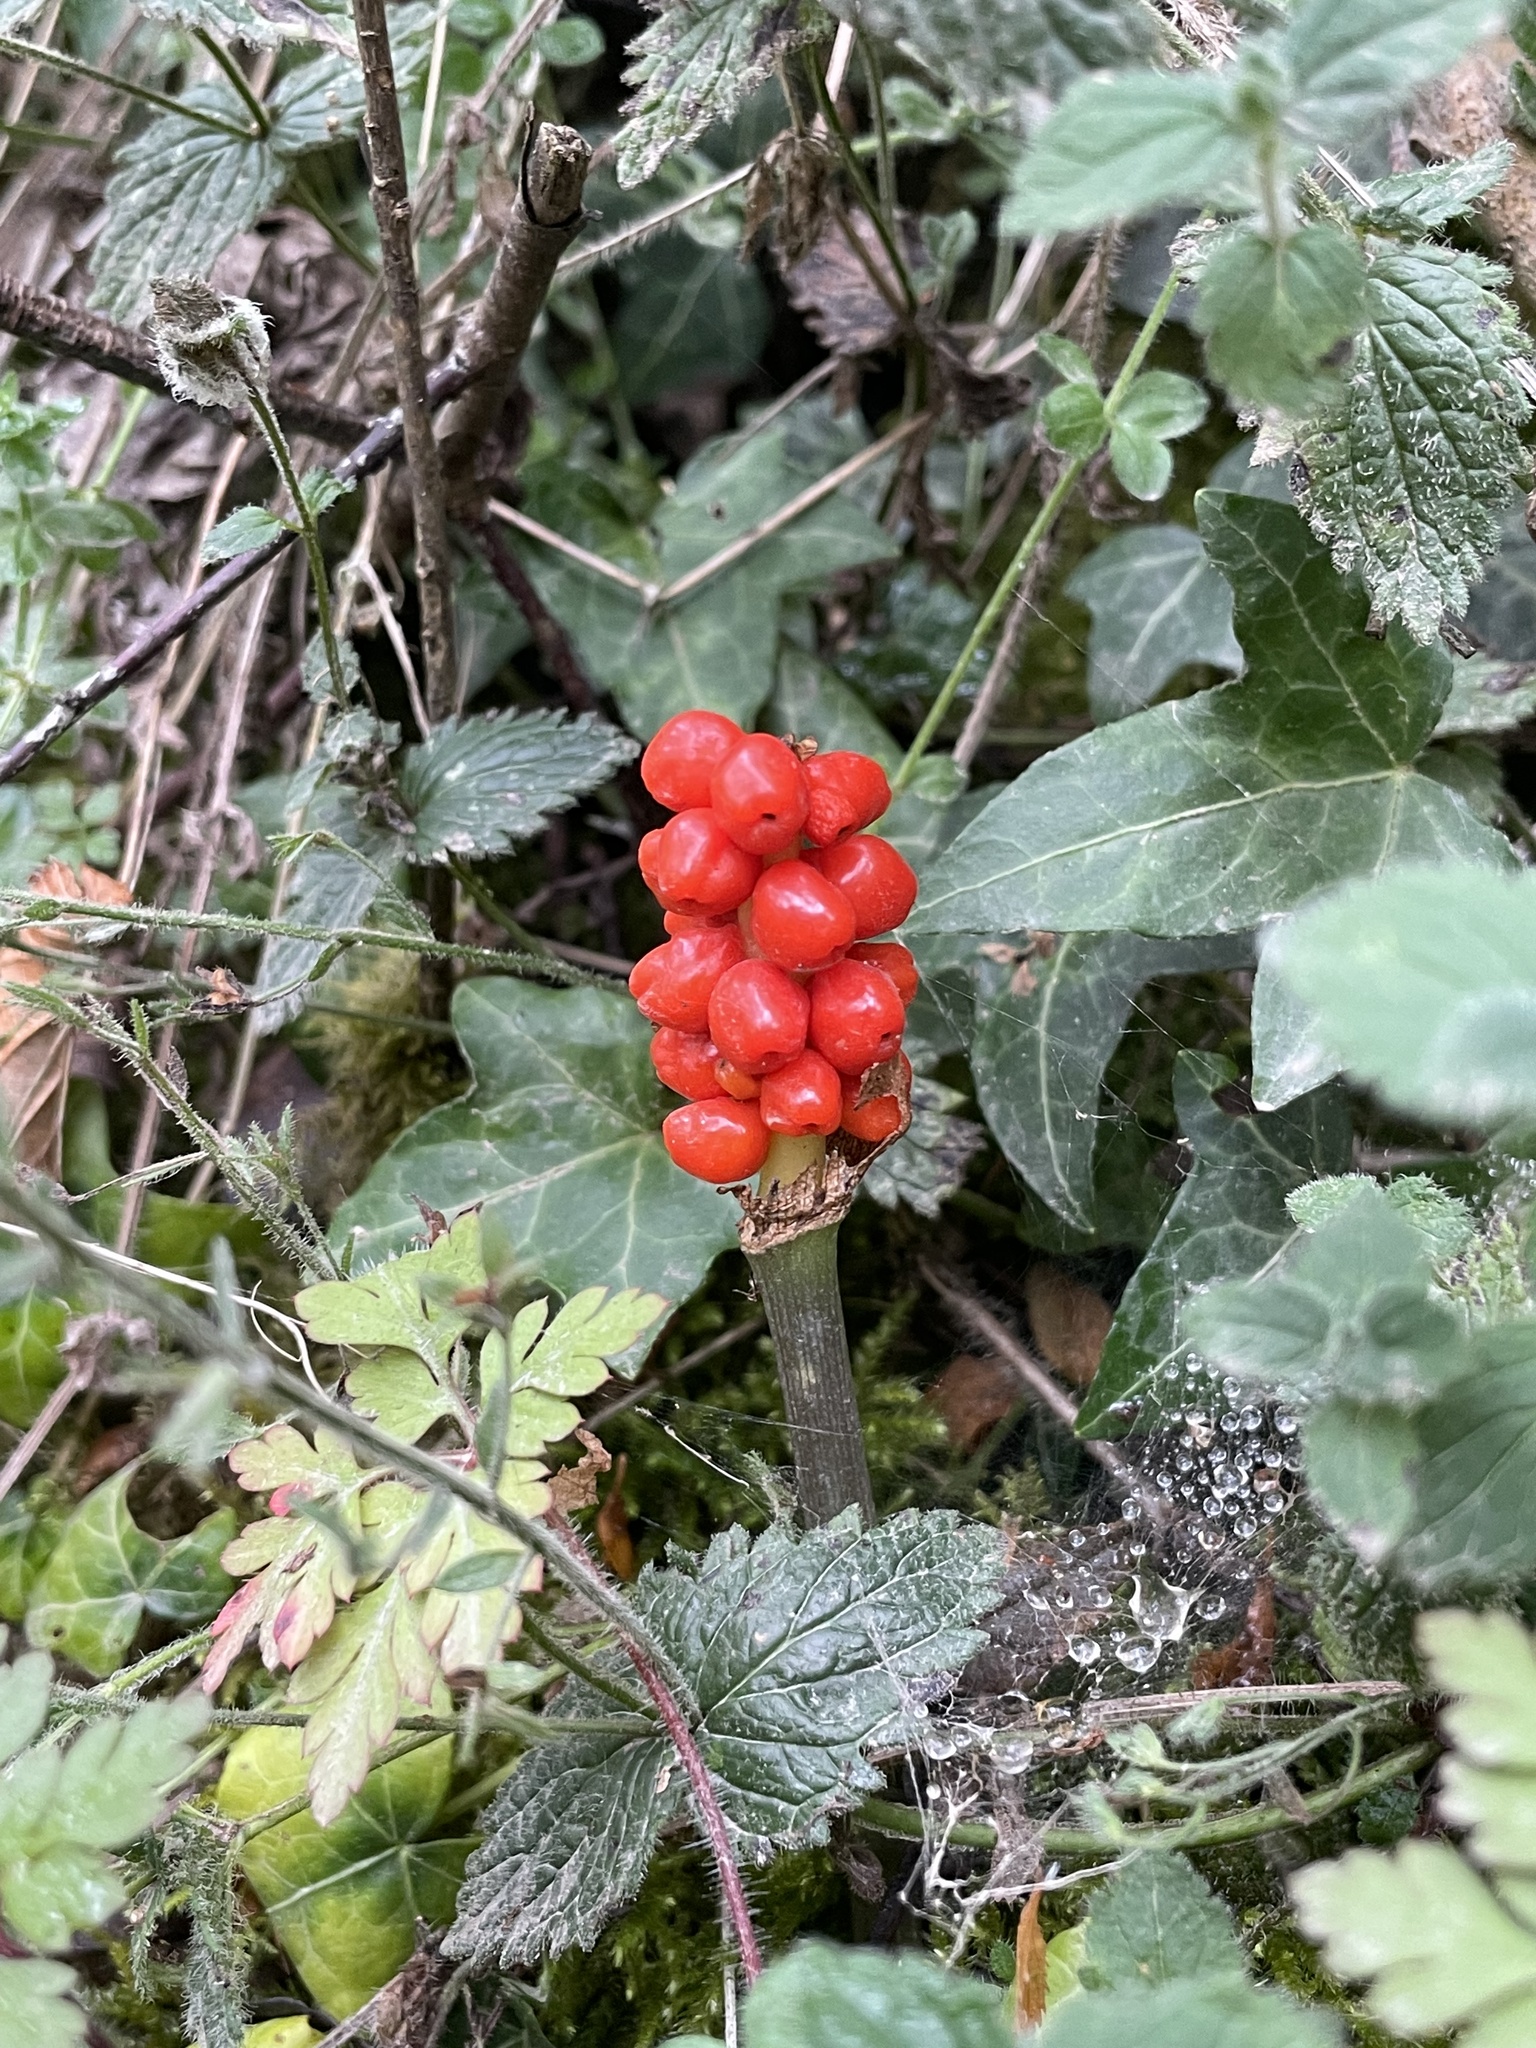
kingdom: Plantae
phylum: Tracheophyta
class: Liliopsida
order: Alismatales
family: Araceae
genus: Arum
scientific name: Arum maculatum
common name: Lords-and-ladies
